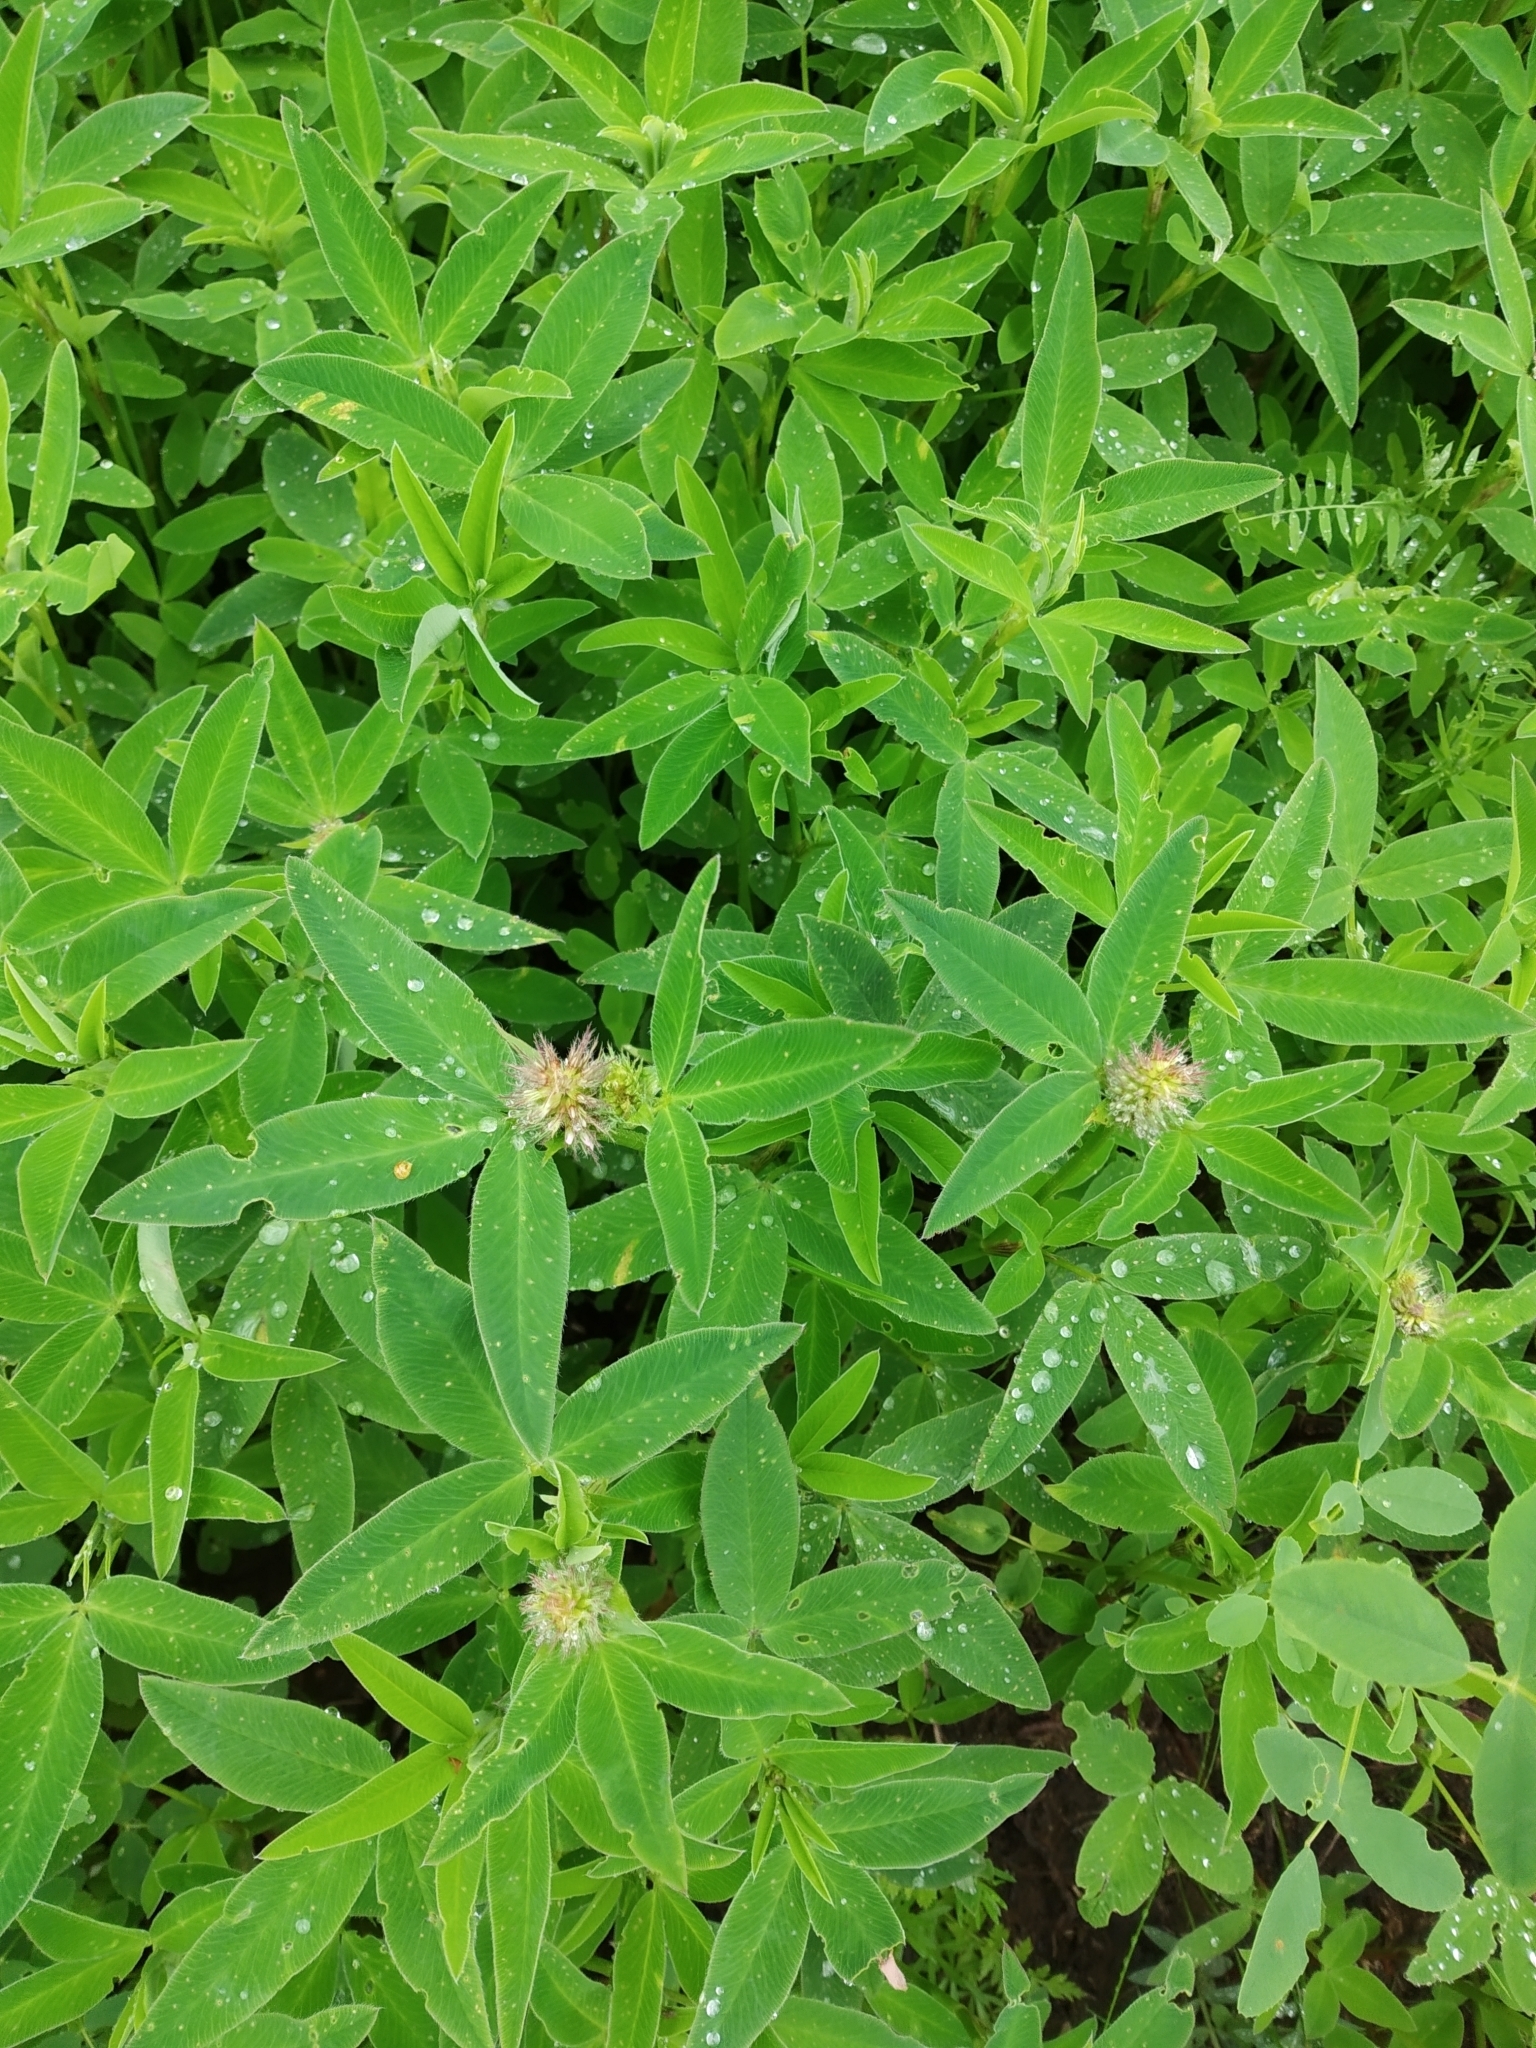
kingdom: Plantae
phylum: Tracheophyta
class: Magnoliopsida
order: Fabales
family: Fabaceae
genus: Trifolium
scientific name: Trifolium medium
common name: Zigzag clover
